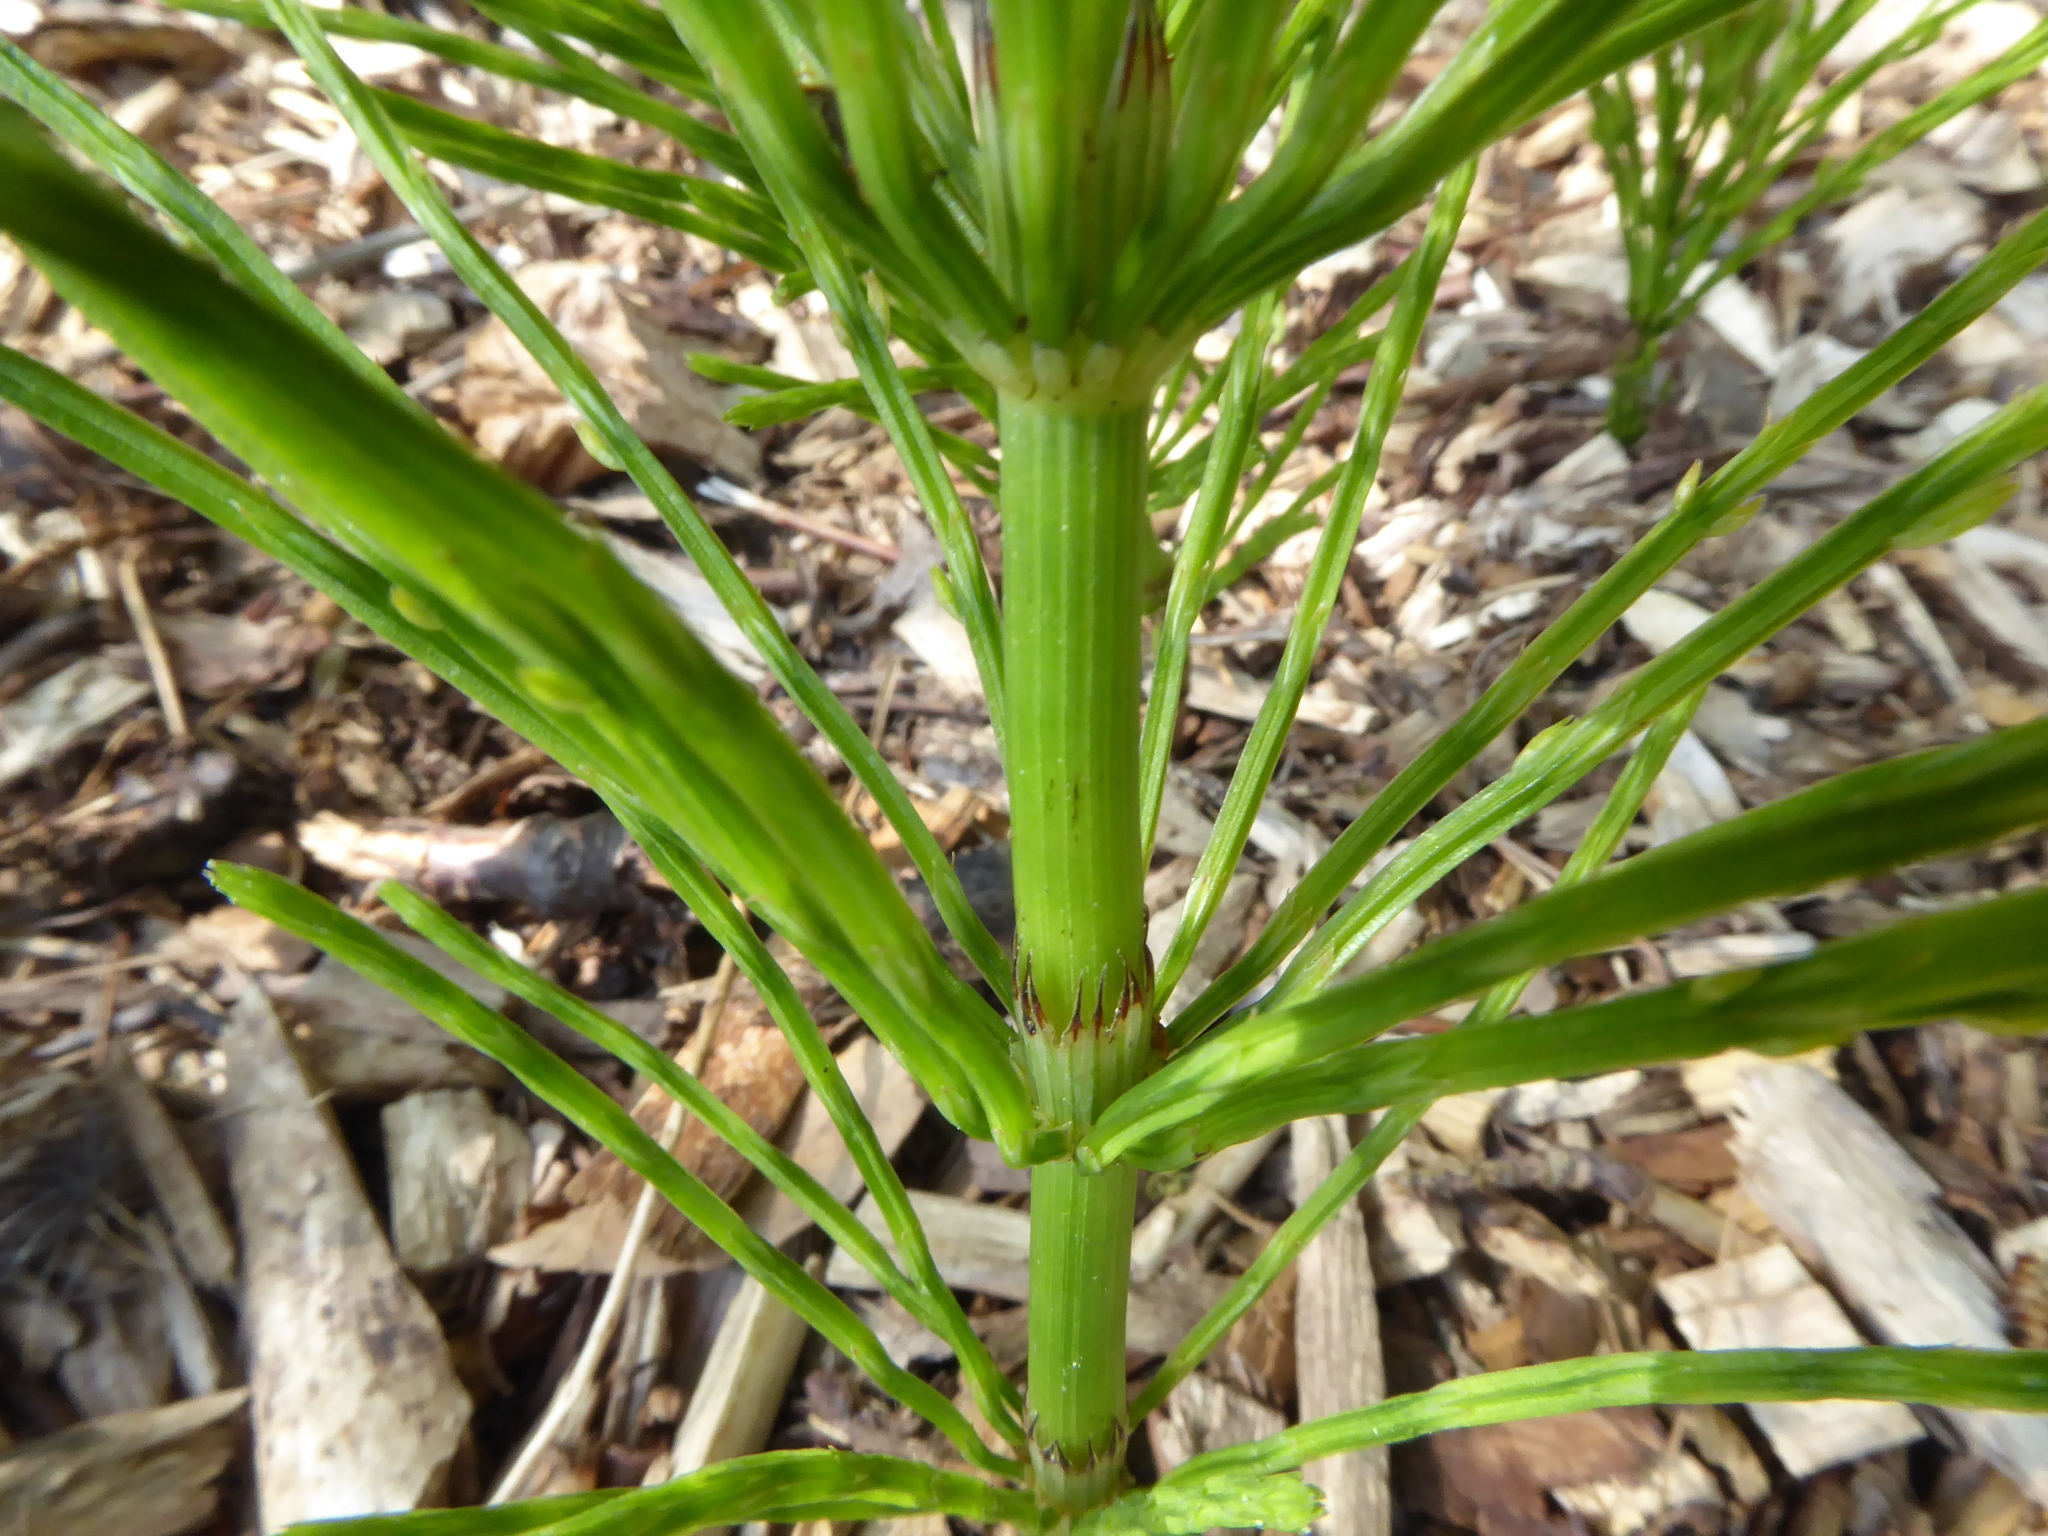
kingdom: Plantae
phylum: Tracheophyta
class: Polypodiopsida
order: Equisetales
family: Equisetaceae
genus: Equisetum
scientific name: Equisetum arvense
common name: Field horsetail
